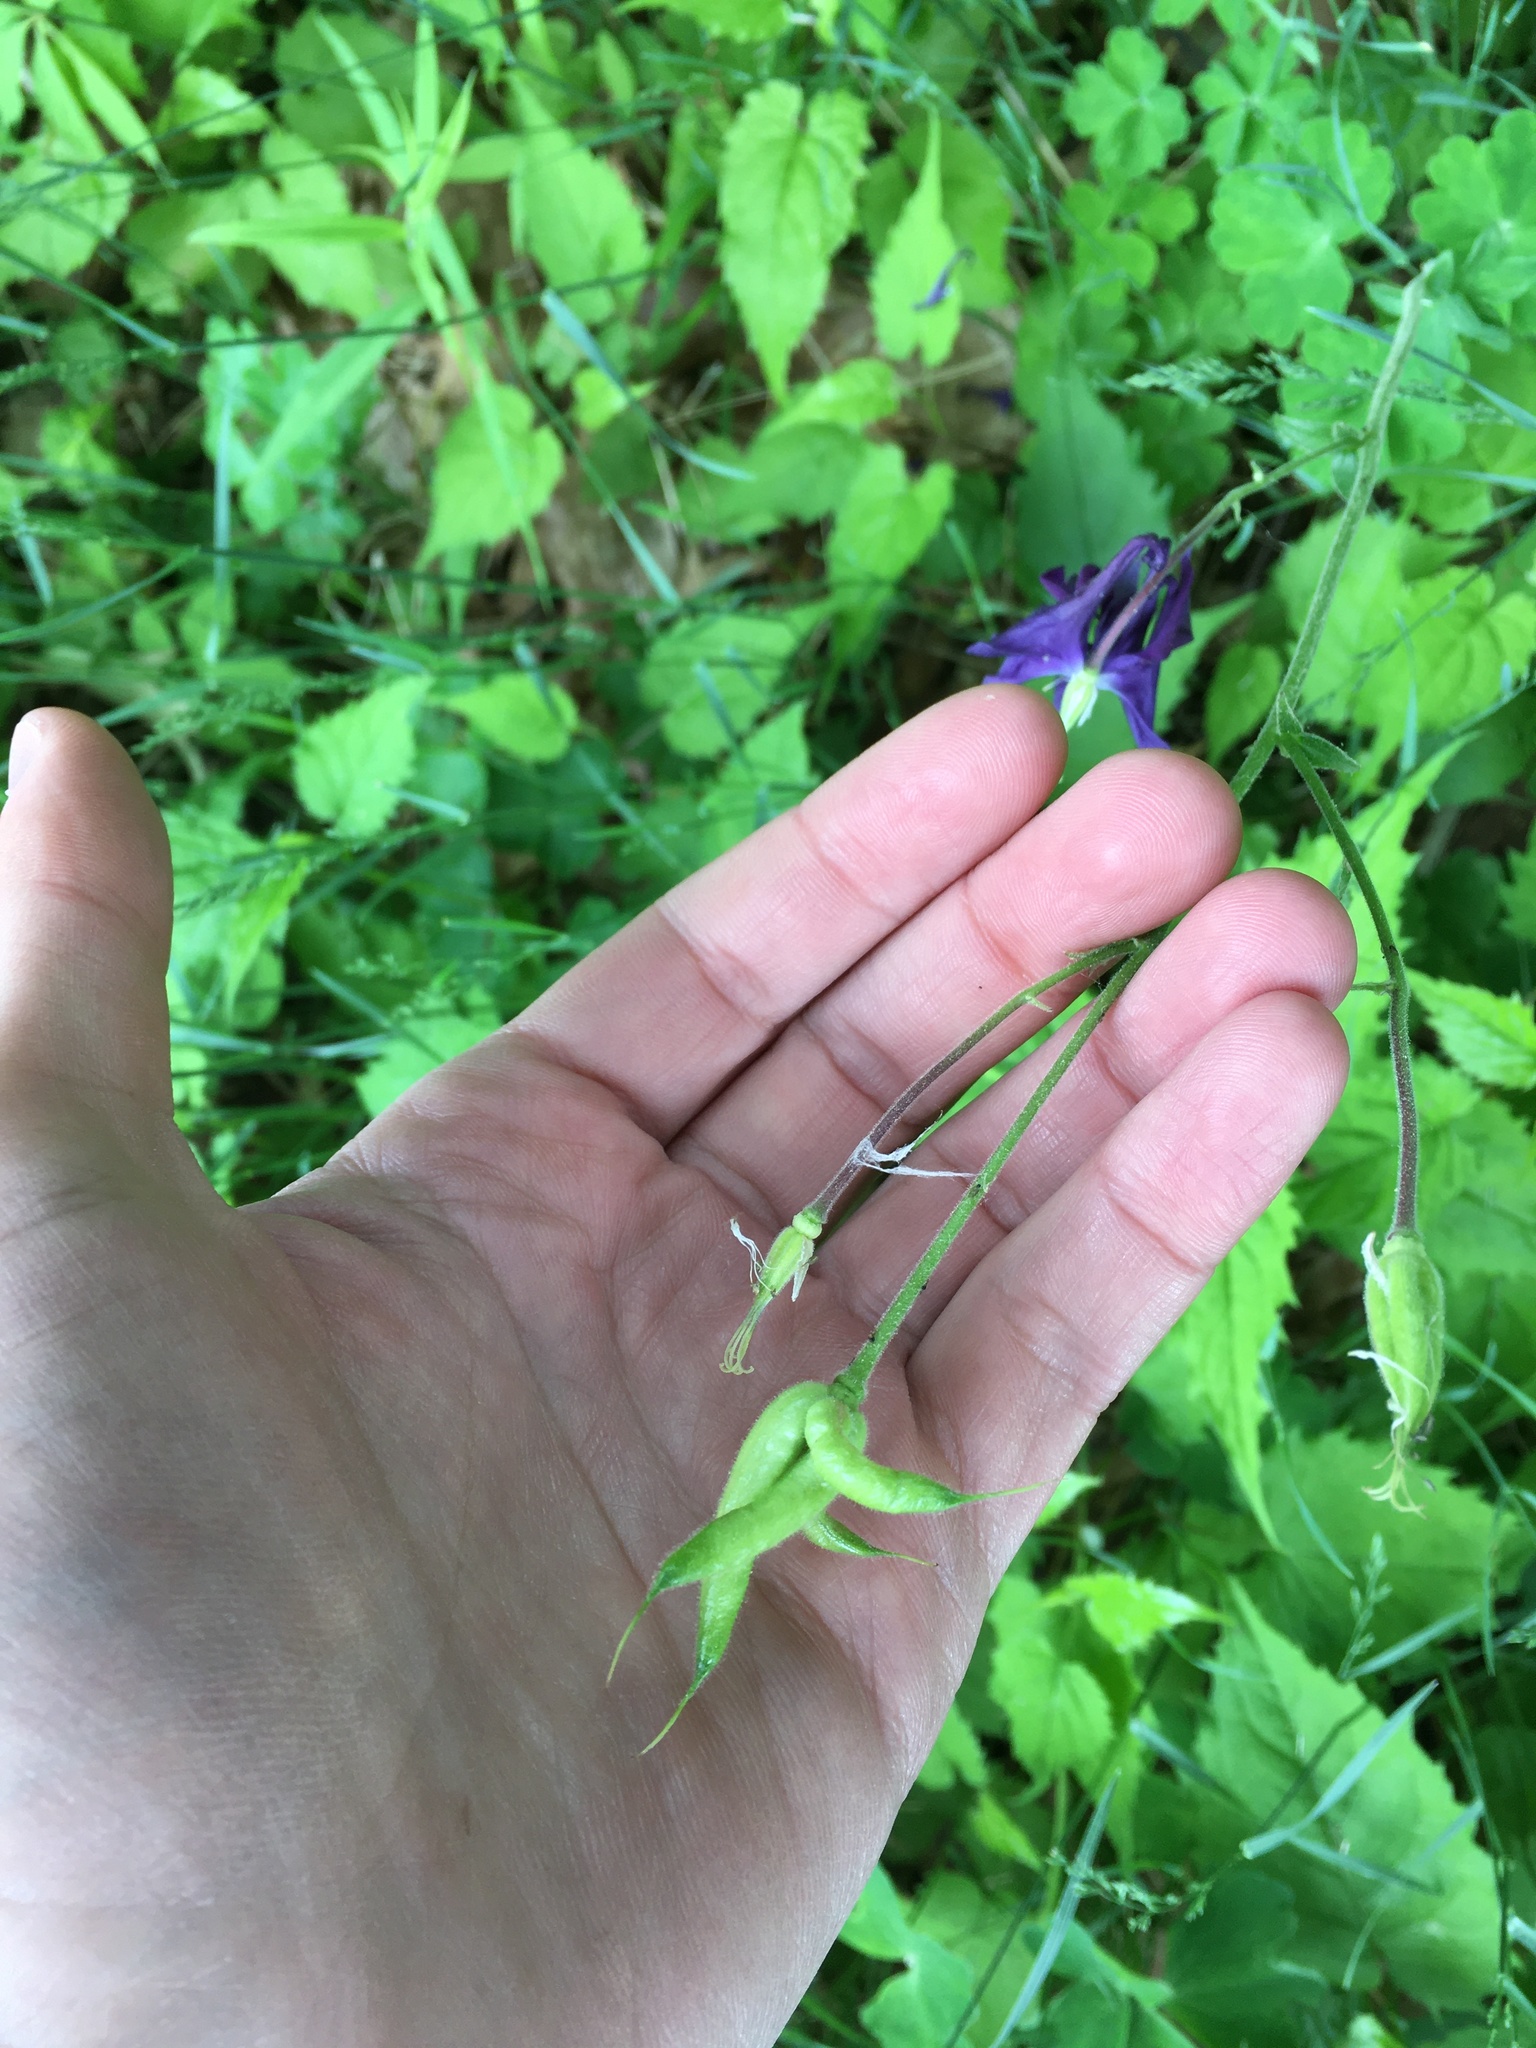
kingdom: Plantae
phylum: Tracheophyta
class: Magnoliopsida
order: Ranunculales
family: Ranunculaceae
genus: Aquilegia
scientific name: Aquilegia vulgaris
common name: Columbine
